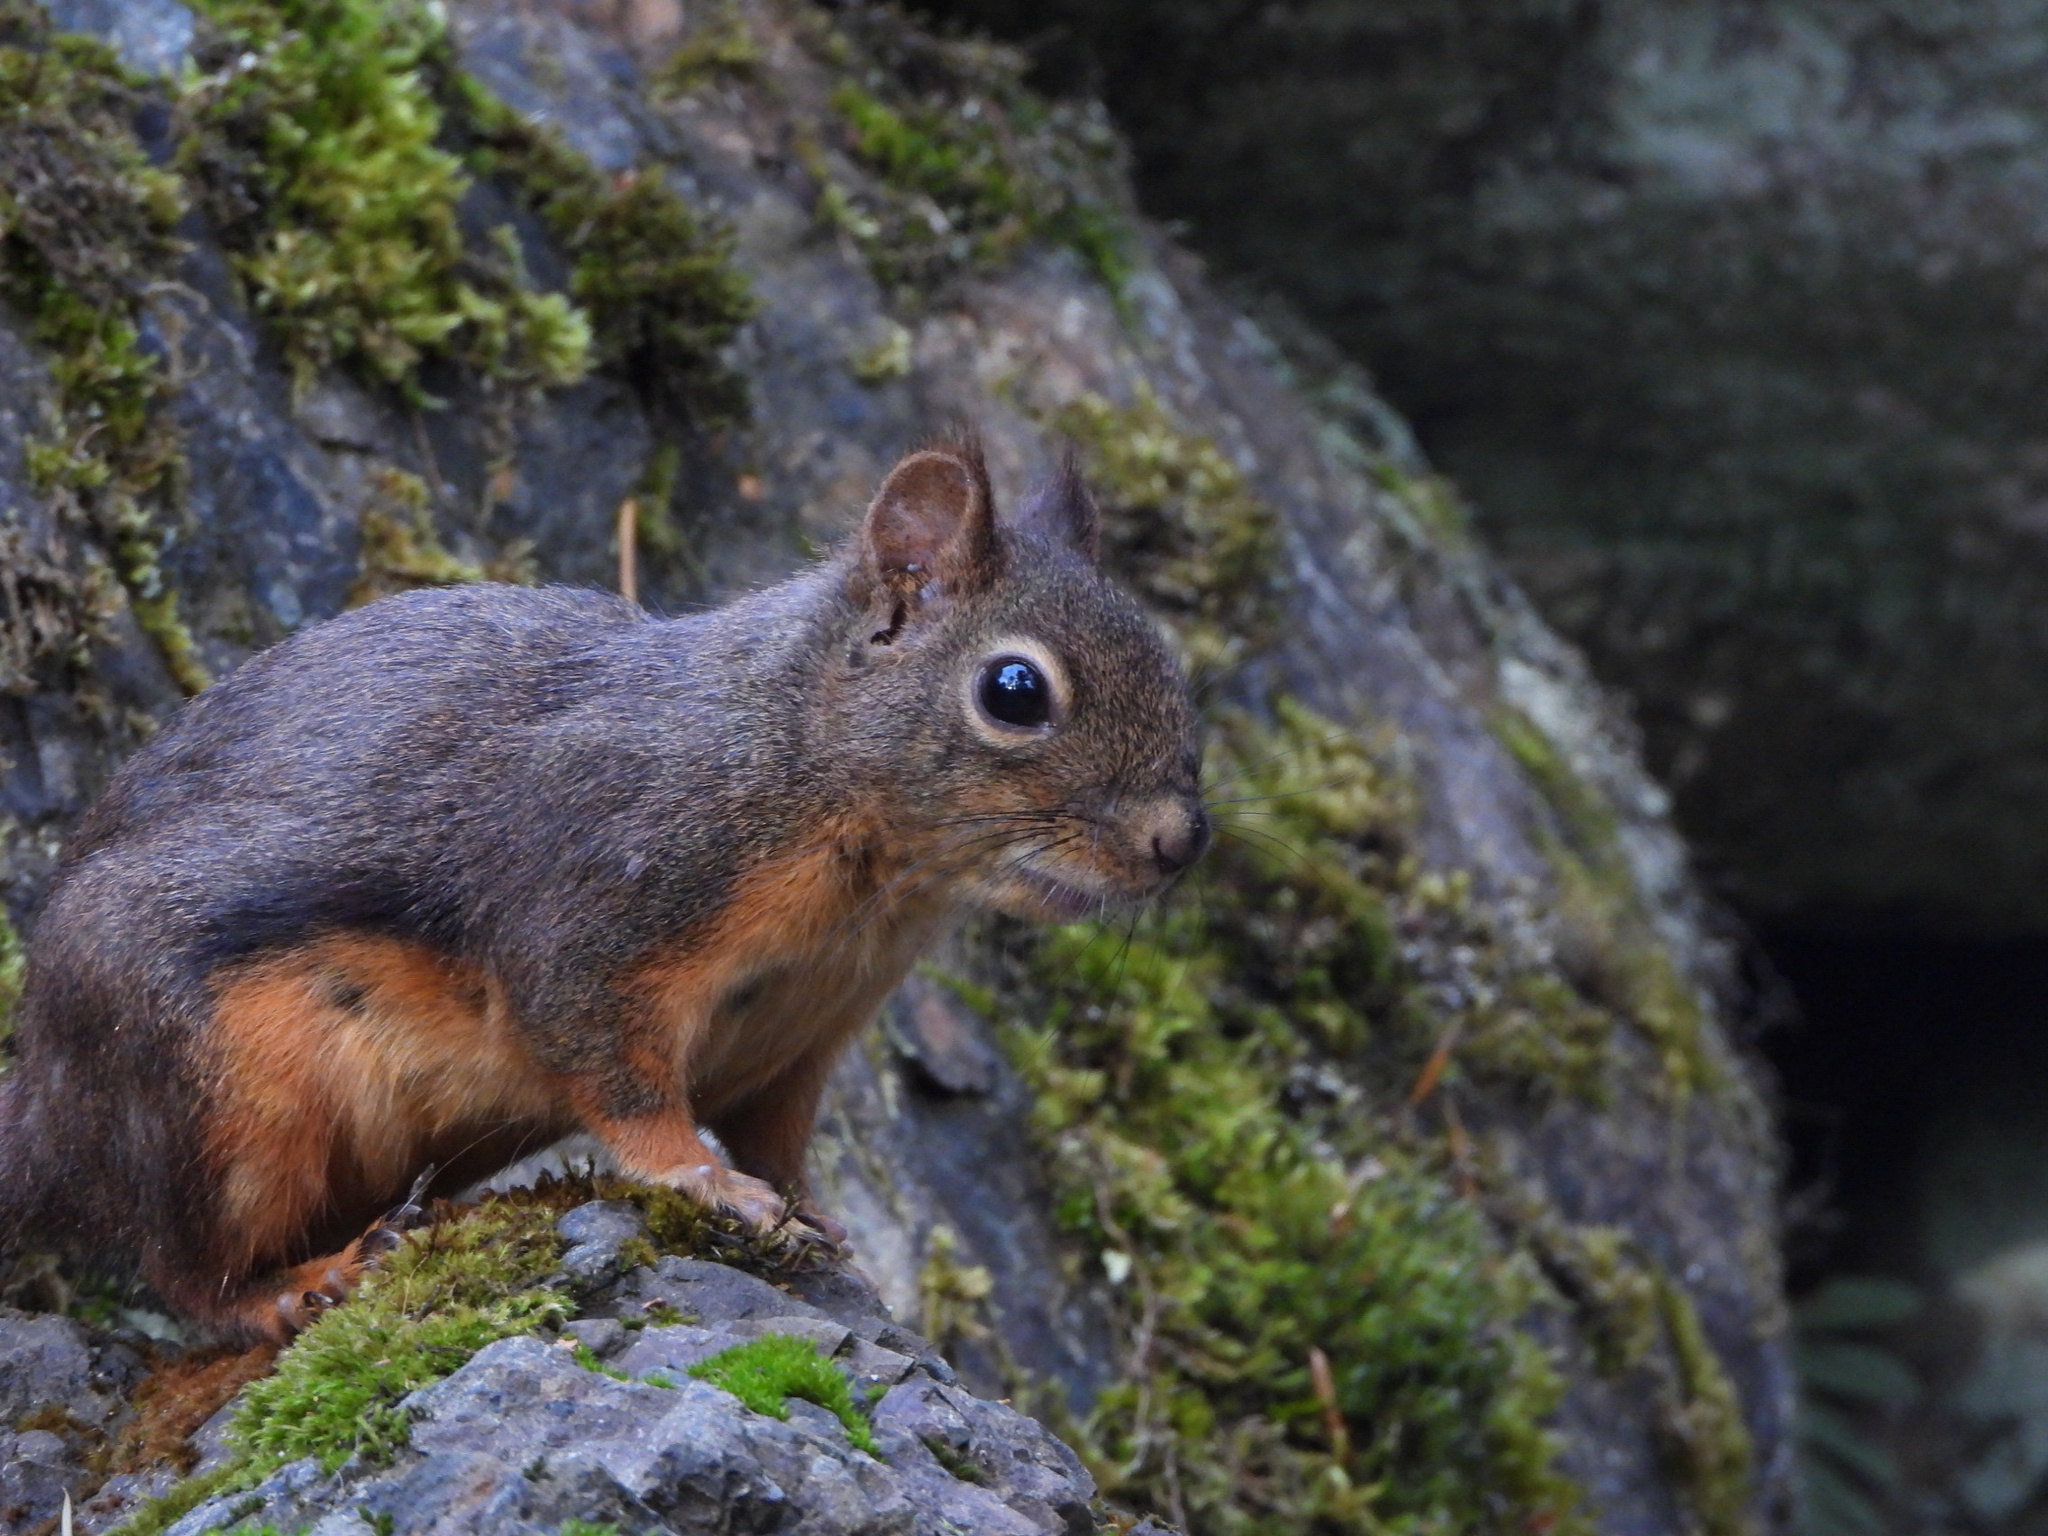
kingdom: Animalia
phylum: Chordata
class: Mammalia
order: Rodentia
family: Sciuridae
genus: Tamiasciurus
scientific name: Tamiasciurus douglasii
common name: Douglas's squirrel
